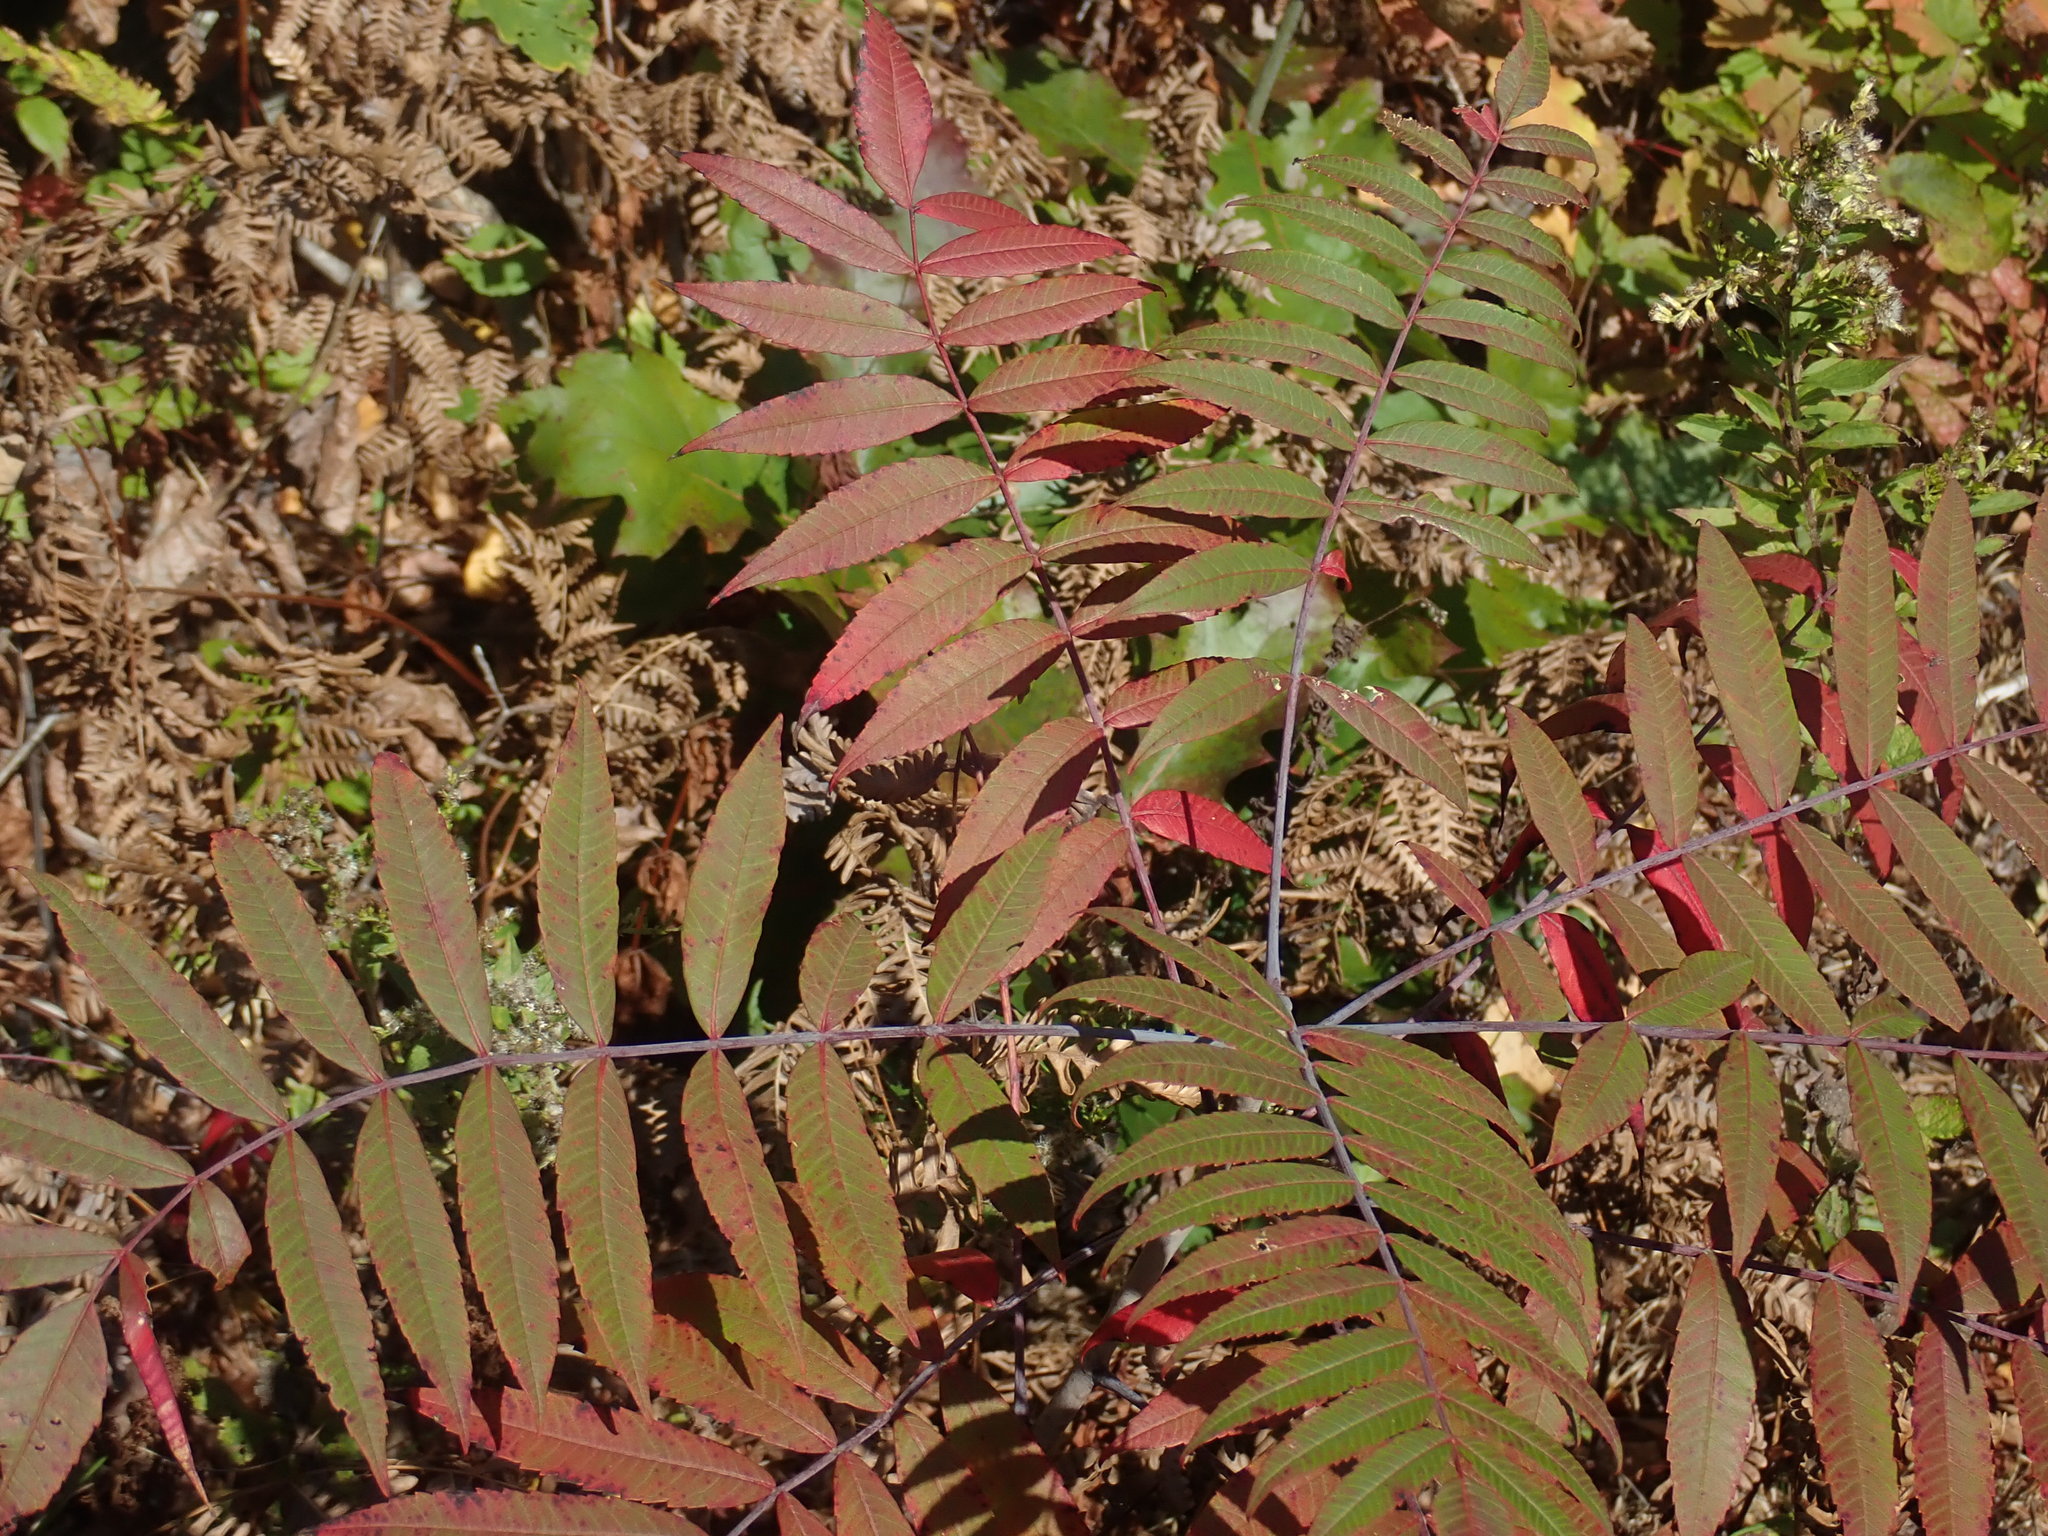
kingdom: Plantae
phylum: Tracheophyta
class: Magnoliopsida
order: Sapindales
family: Anacardiaceae
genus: Rhus
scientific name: Rhus glabra
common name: Scarlet sumac
